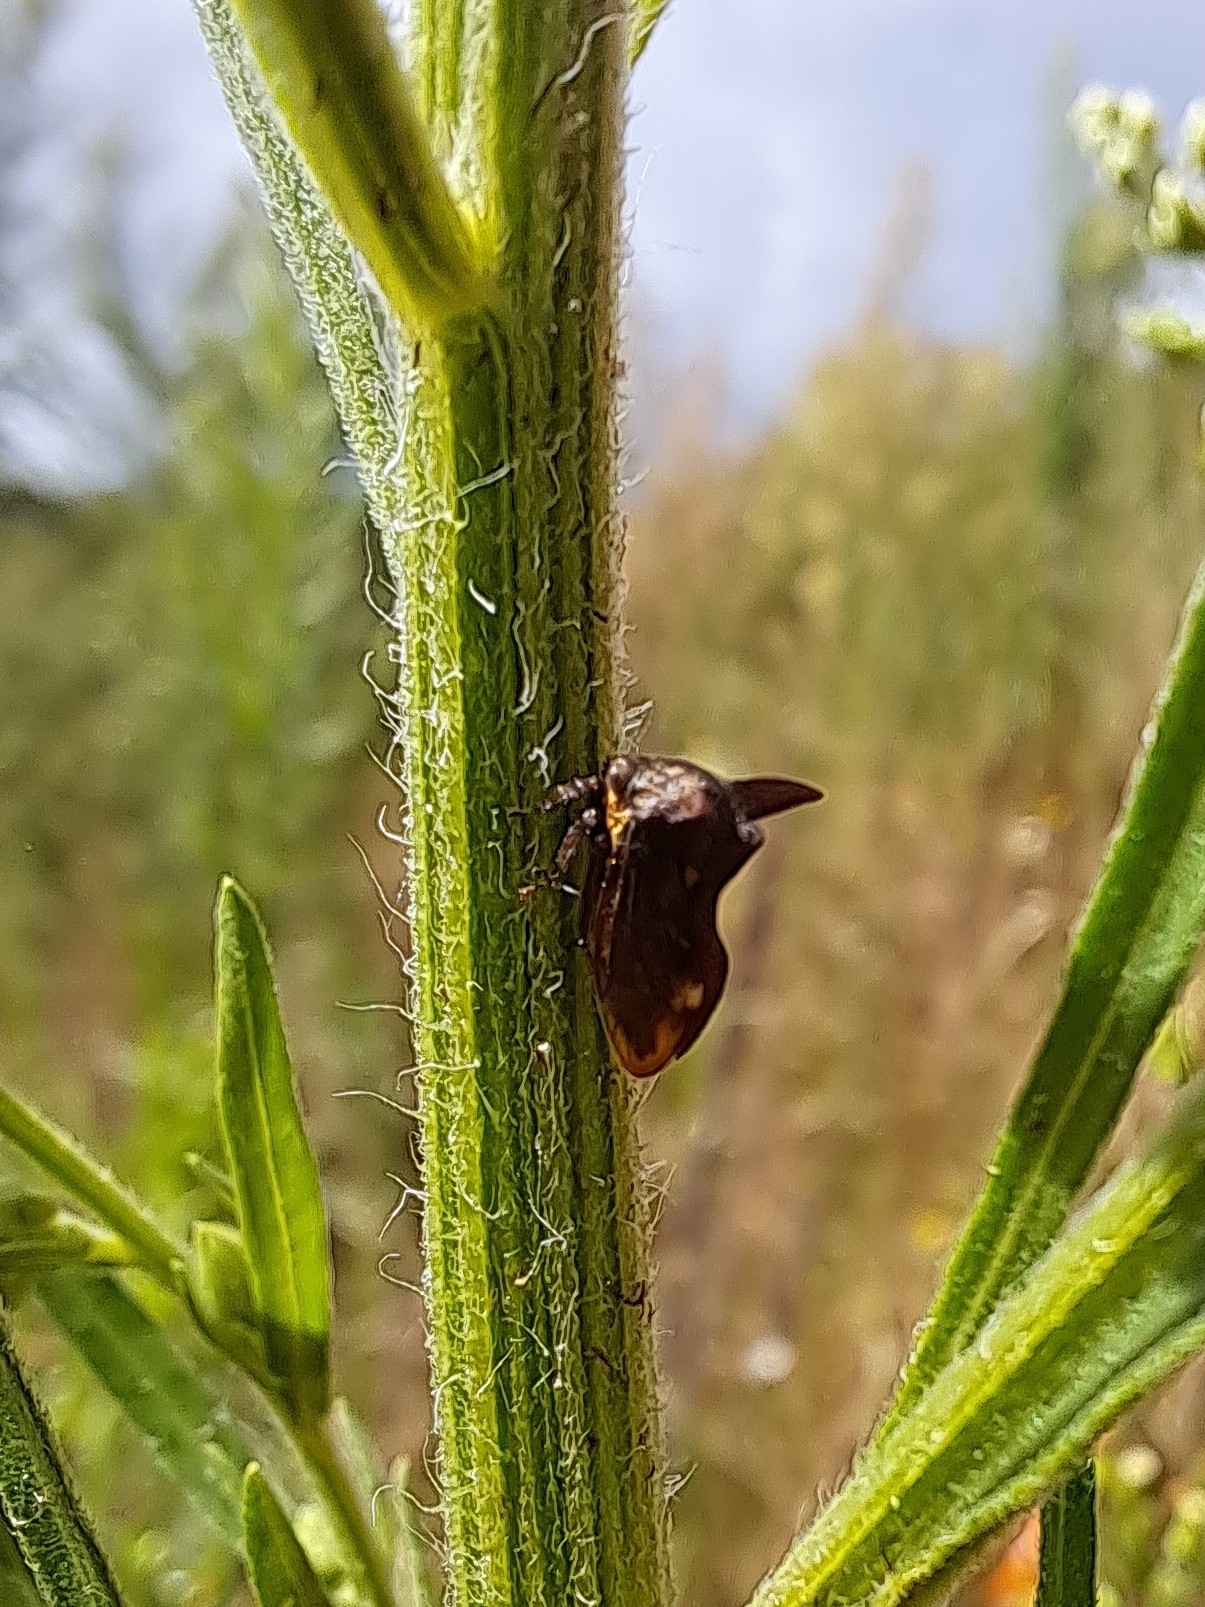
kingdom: Animalia
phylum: Arthropoda
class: Insecta
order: Hemiptera
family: Membracidae
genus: Acanthuchus
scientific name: Acanthuchus trispinifer
